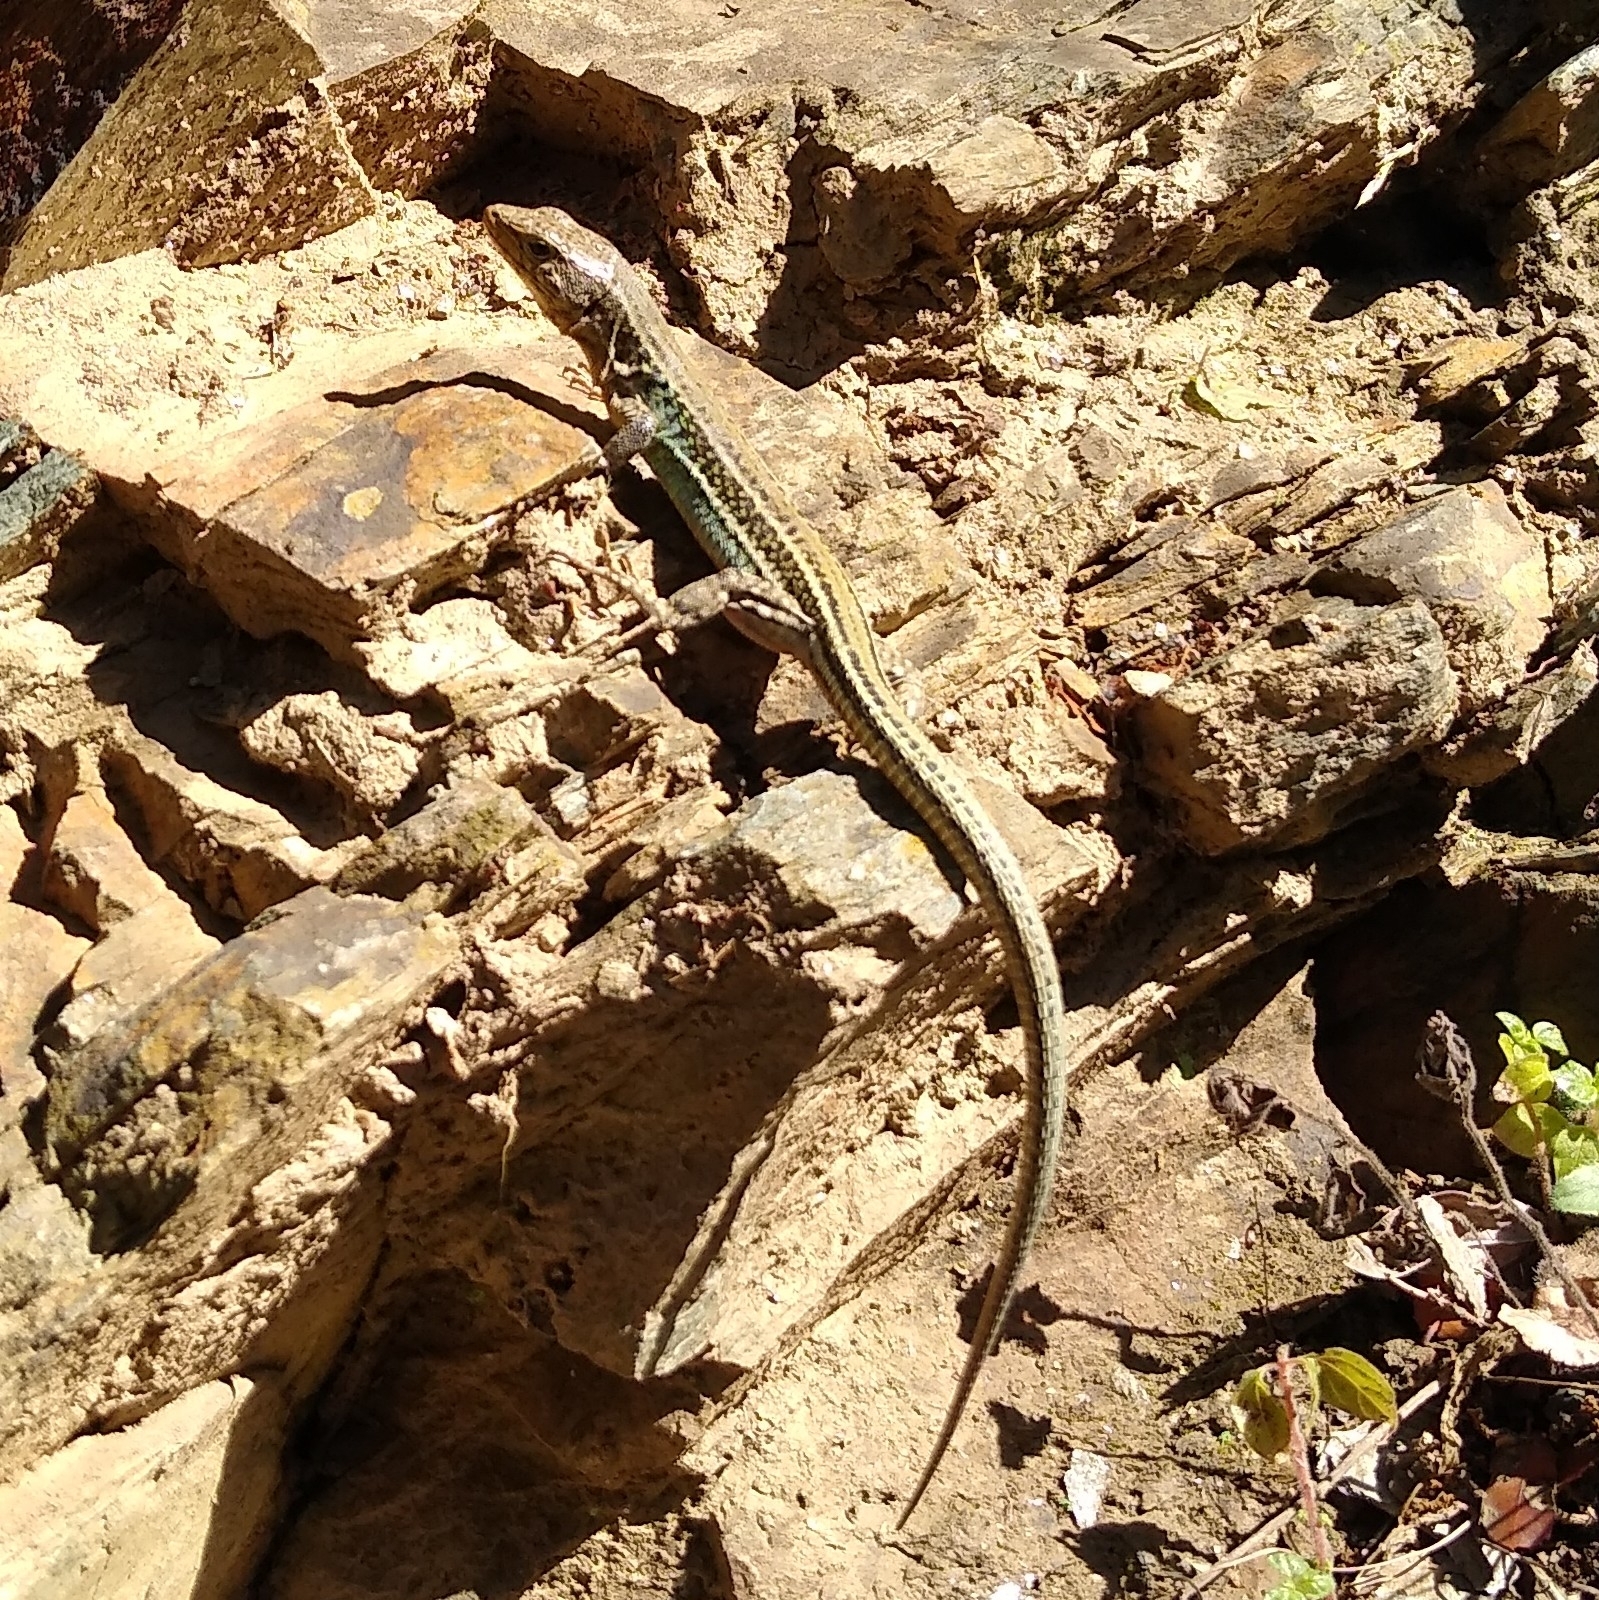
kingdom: Animalia
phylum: Chordata
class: Squamata
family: Lacertidae
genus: Podarcis
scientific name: Podarcis cretensis
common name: Cretan wall lizard
